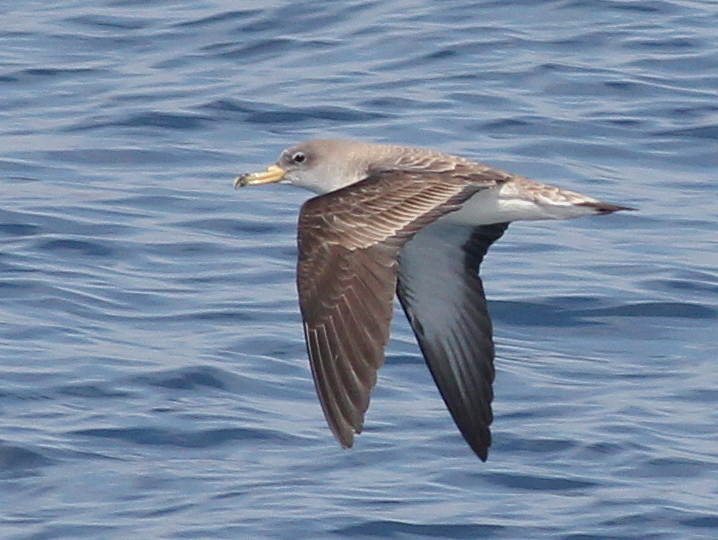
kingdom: Animalia
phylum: Chordata
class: Aves
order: Procellariiformes
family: Procellariidae
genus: Calonectris
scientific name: Calonectris diomedea
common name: Cory's shearwater
